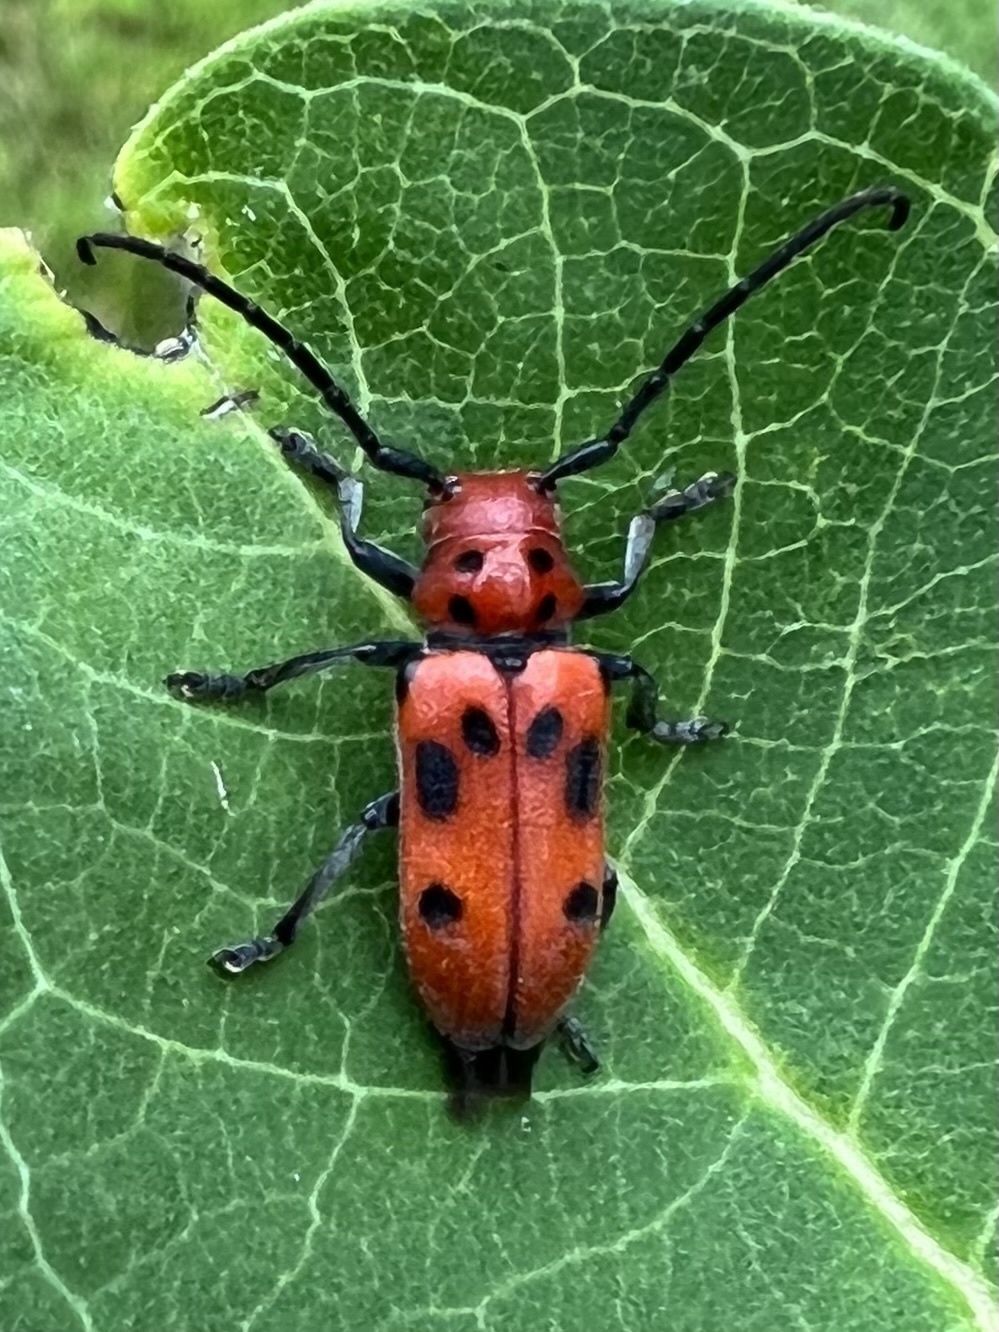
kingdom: Animalia
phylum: Arthropoda
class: Insecta
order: Coleoptera
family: Cerambycidae
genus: Tetraopes
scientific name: Tetraopes tetrophthalmus
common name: Red milkweed beetle
